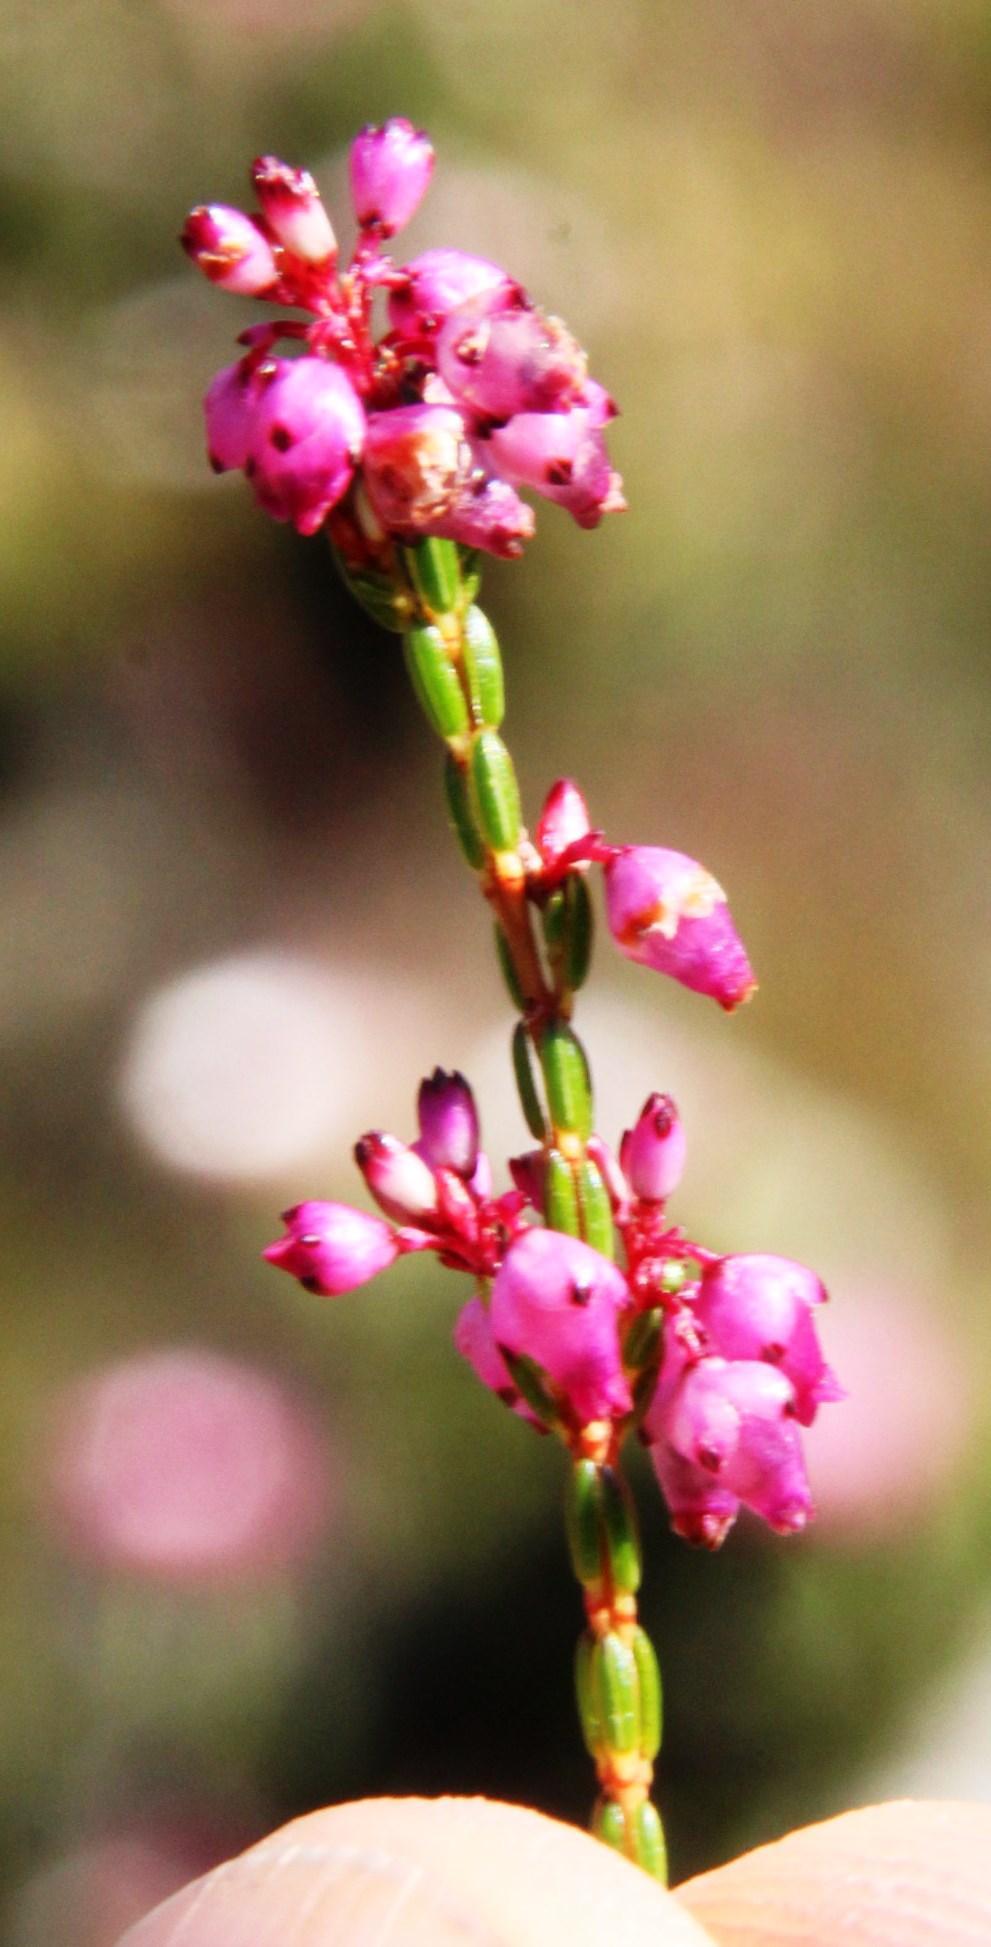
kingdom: Plantae
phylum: Tracheophyta
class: Magnoliopsida
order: Ericales
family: Ericaceae
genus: Erica
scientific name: Erica rhopalantha
